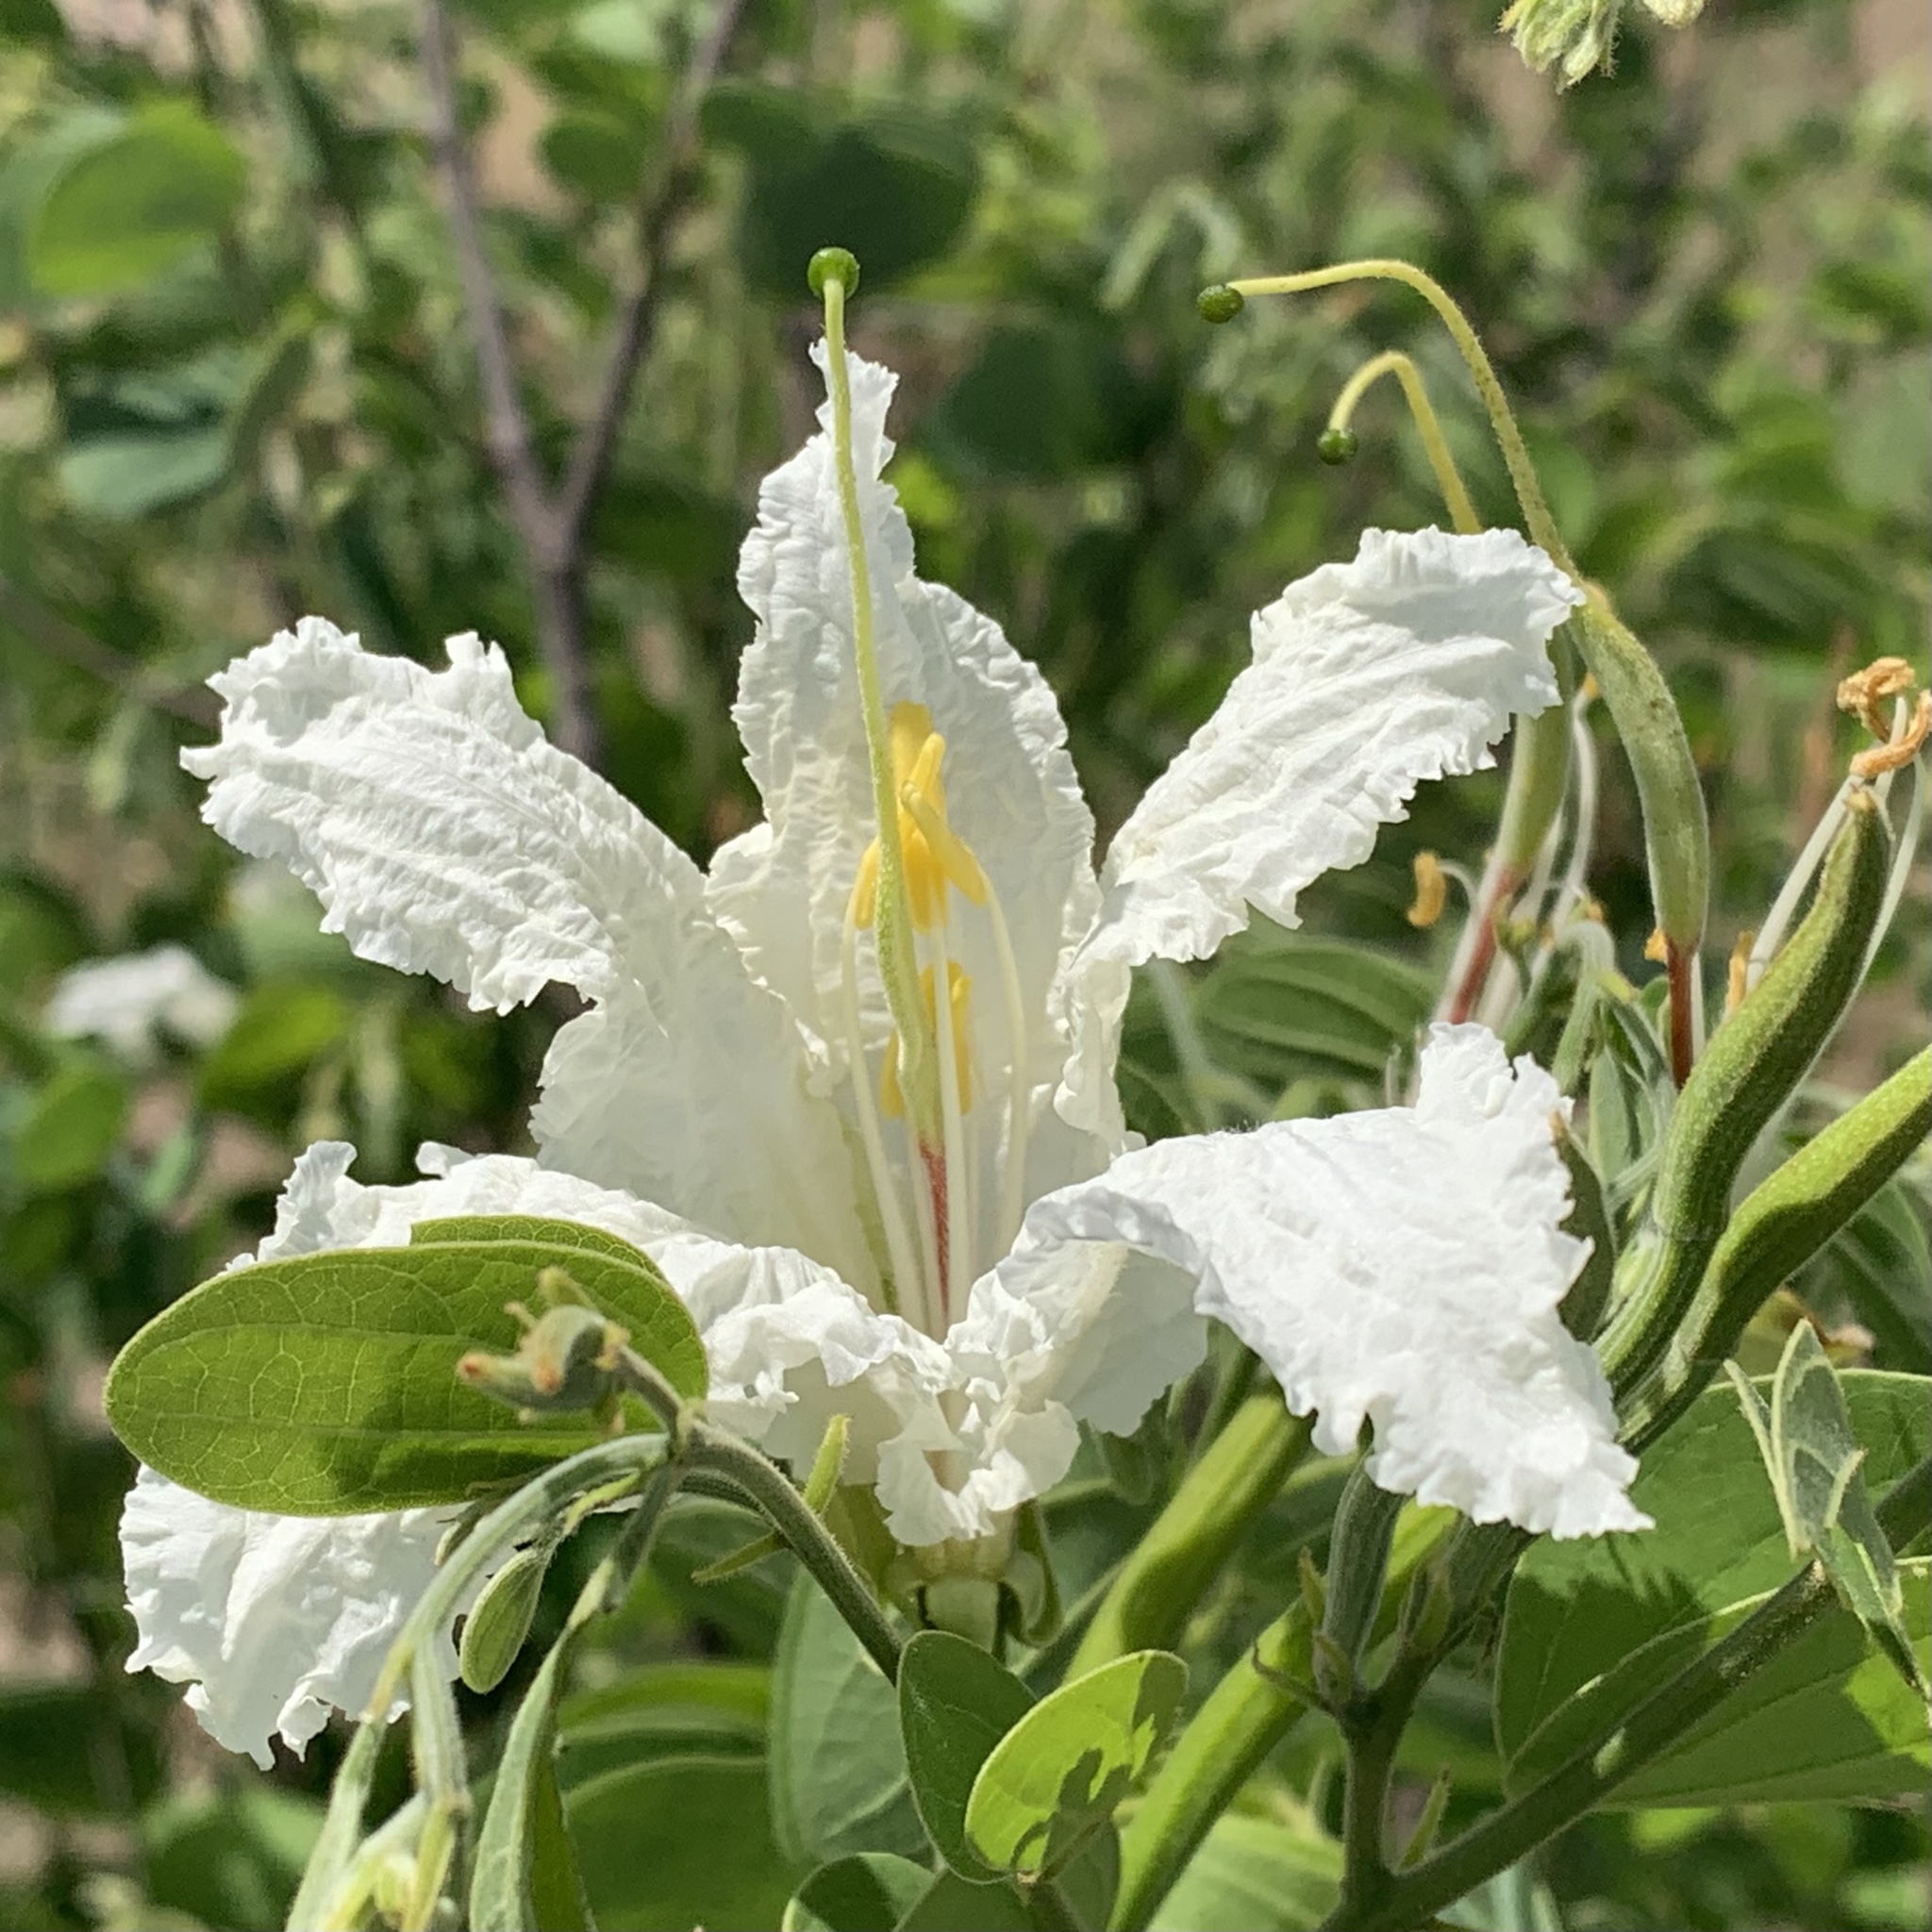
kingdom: Plantae
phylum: Tracheophyta
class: Magnoliopsida
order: Fabales
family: Fabaceae
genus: Bauhinia
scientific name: Bauhinia petersiana
